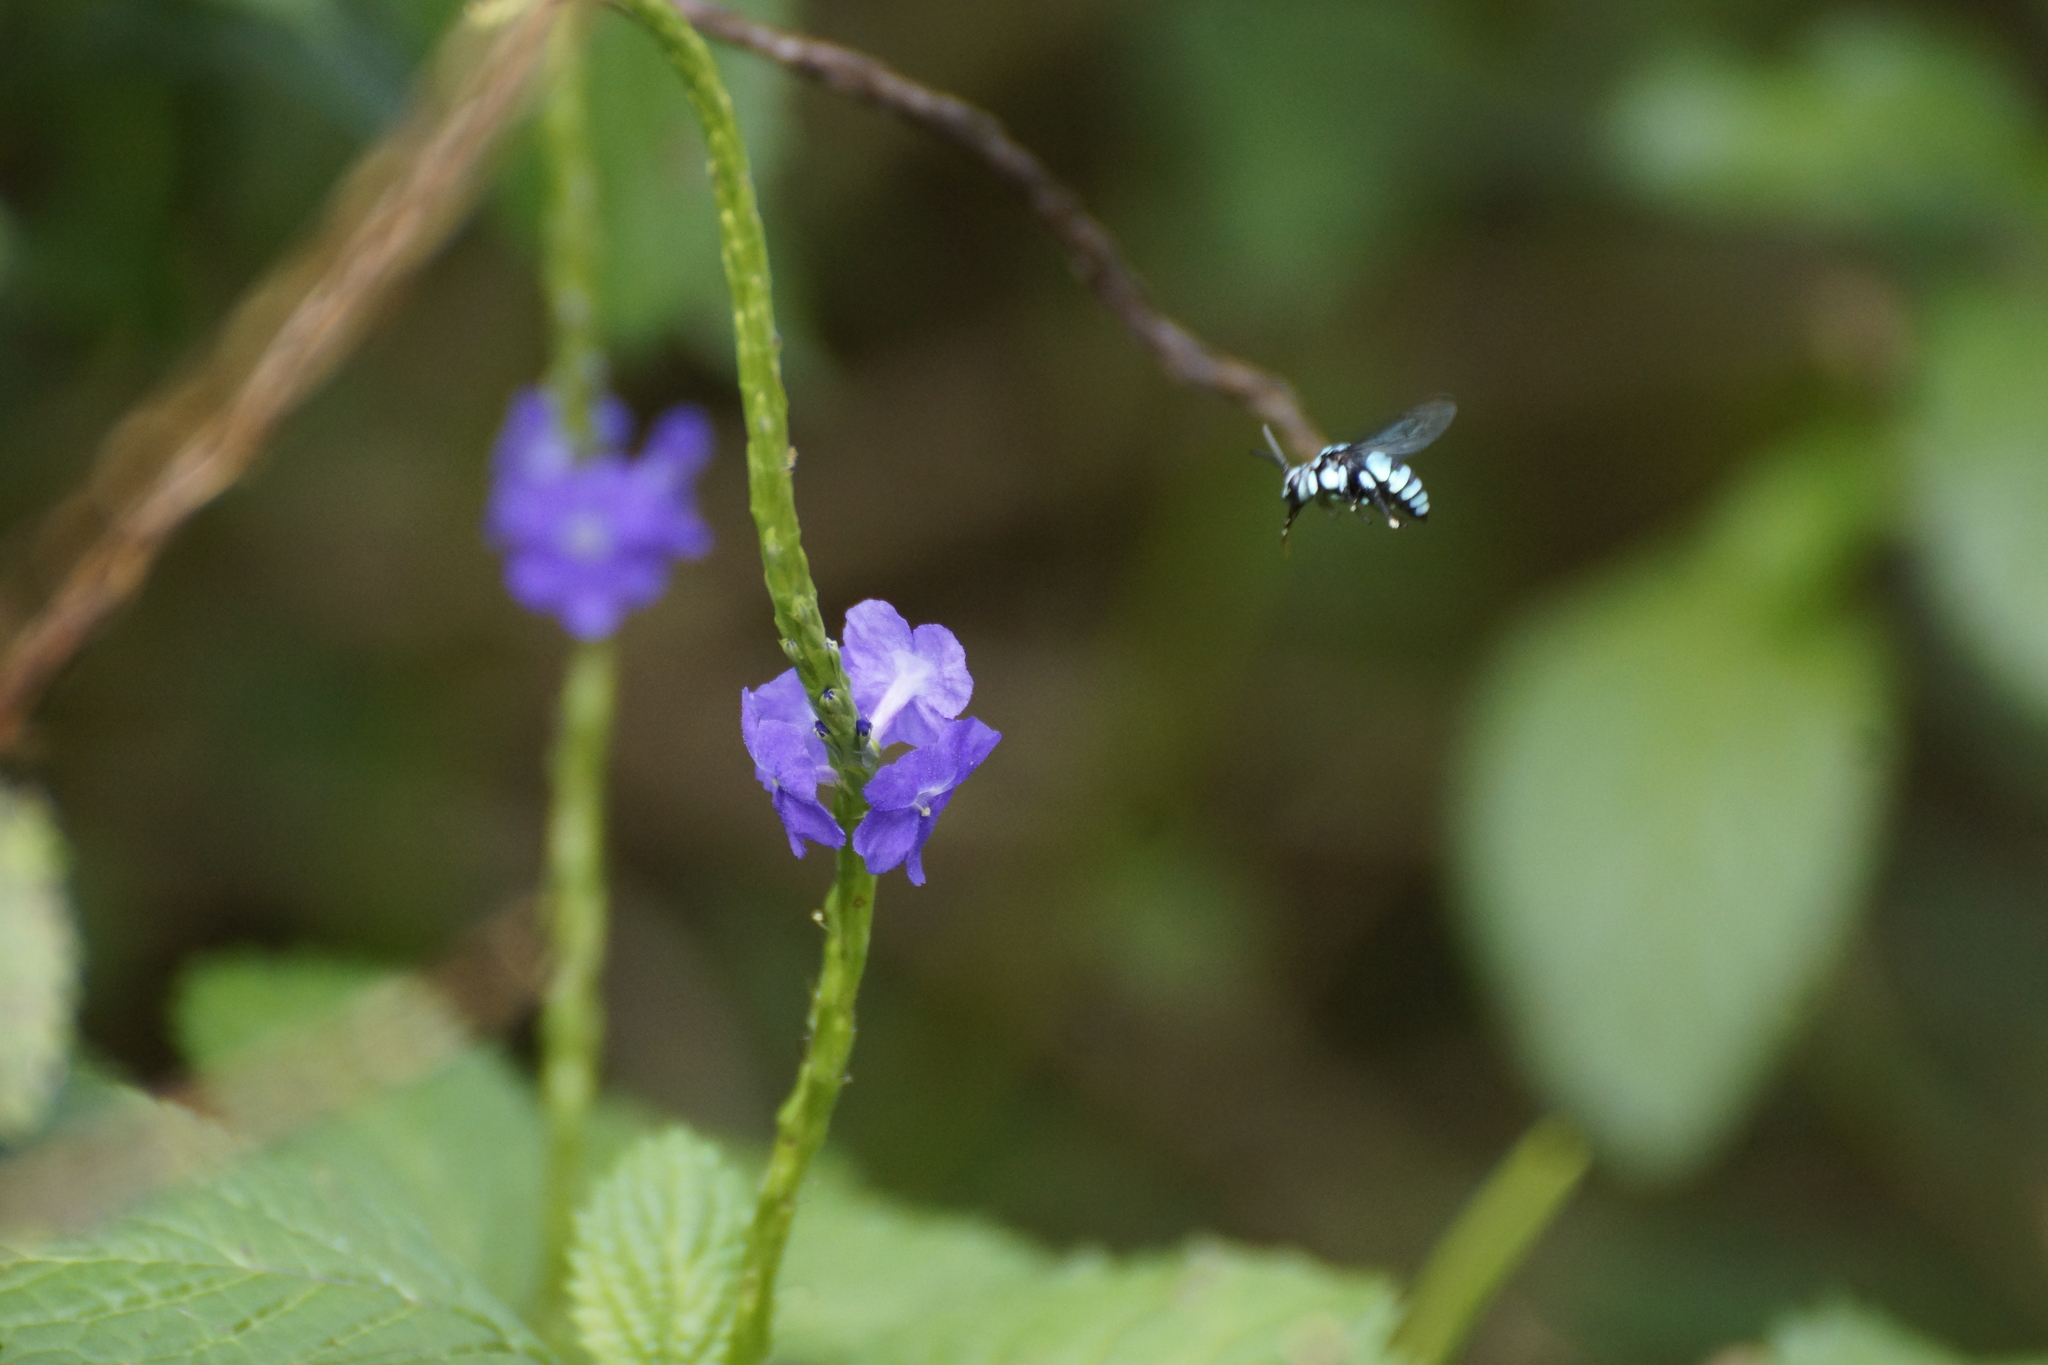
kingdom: Animalia
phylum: Arthropoda
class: Insecta
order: Hymenoptera
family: Apidae
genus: Thyreus
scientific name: Thyreus nitidulus
